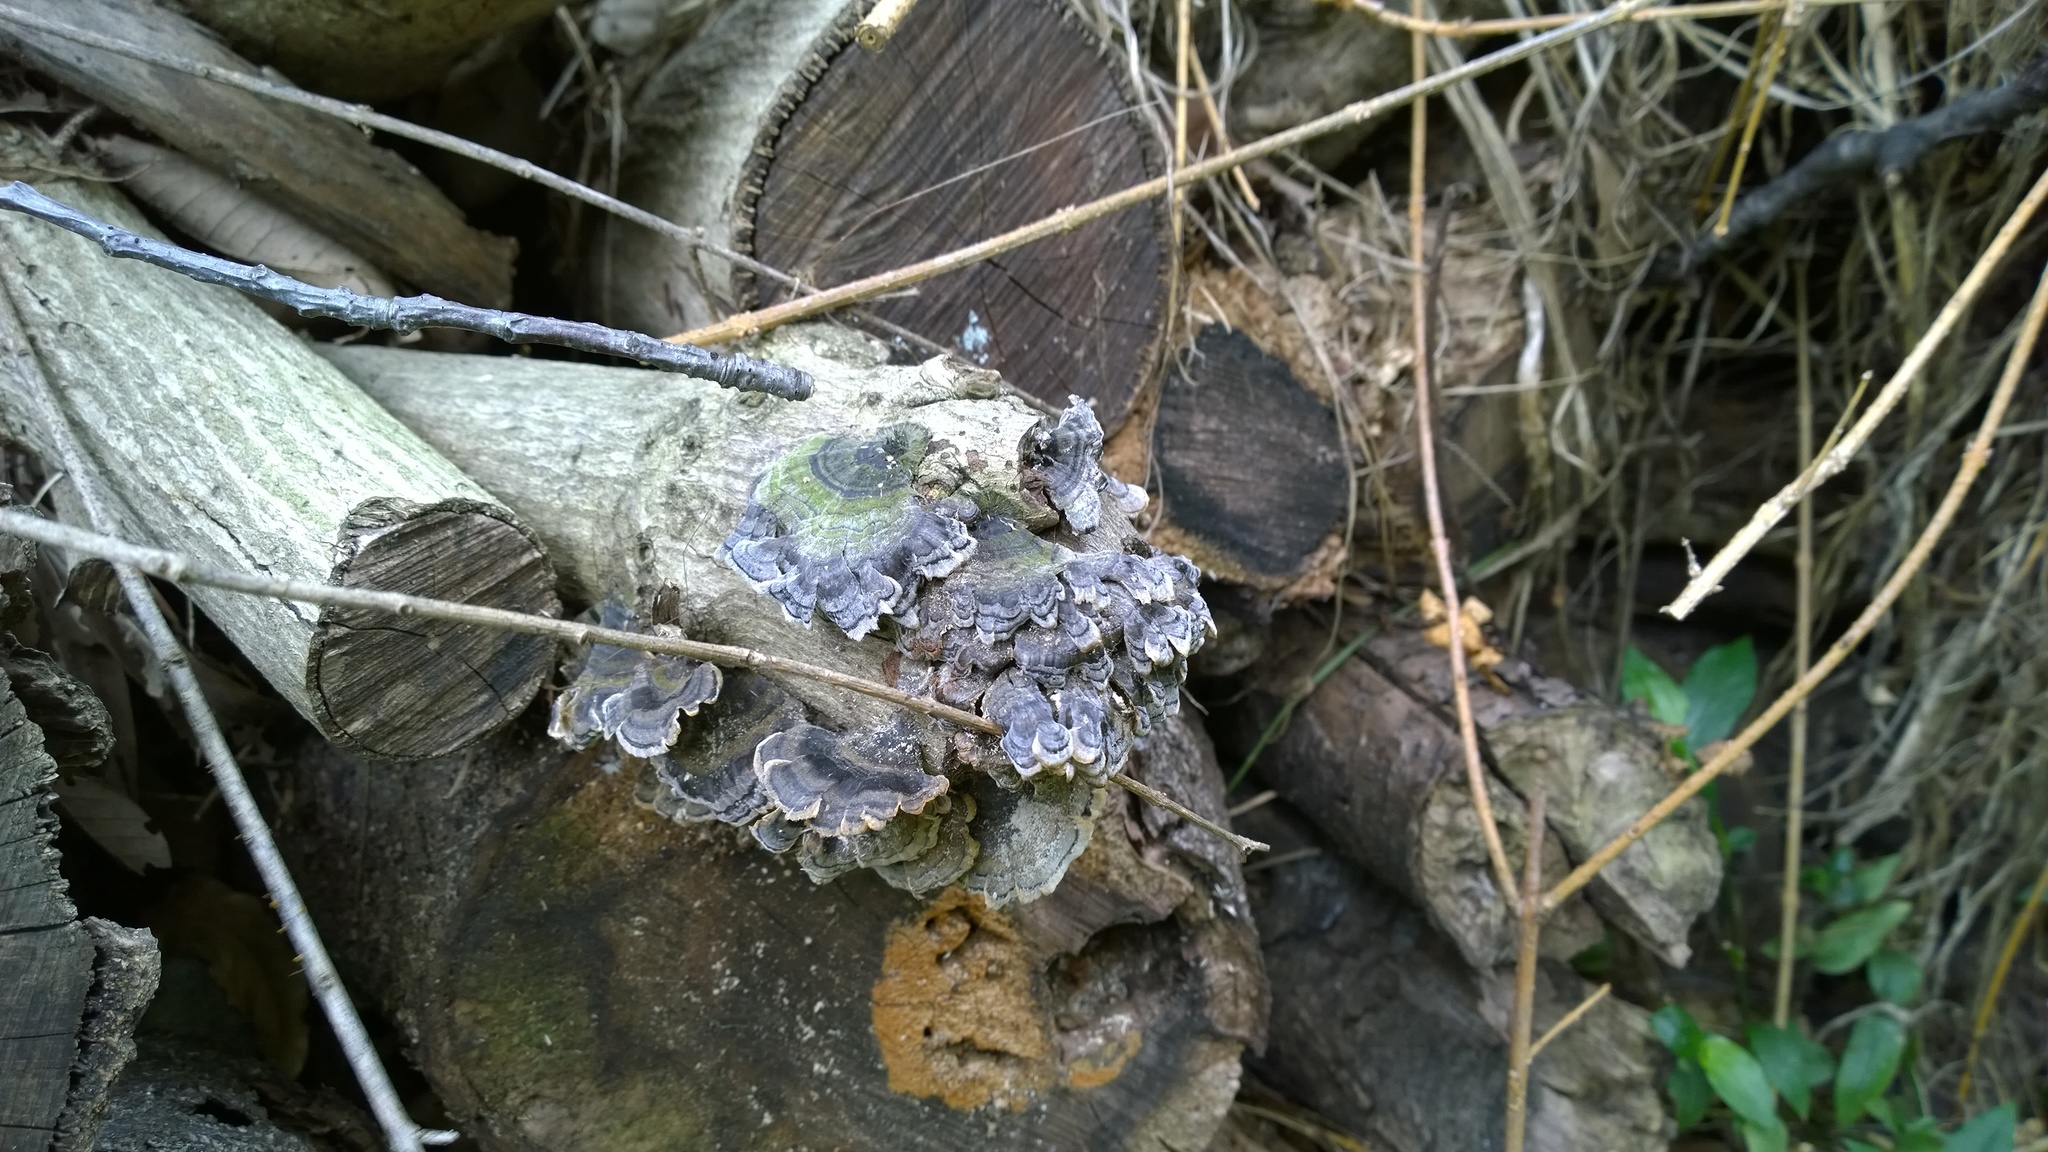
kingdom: Fungi
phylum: Basidiomycota
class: Agaricomycetes
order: Polyporales
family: Polyporaceae
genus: Trametes
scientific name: Trametes versicolor
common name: Turkeytail
